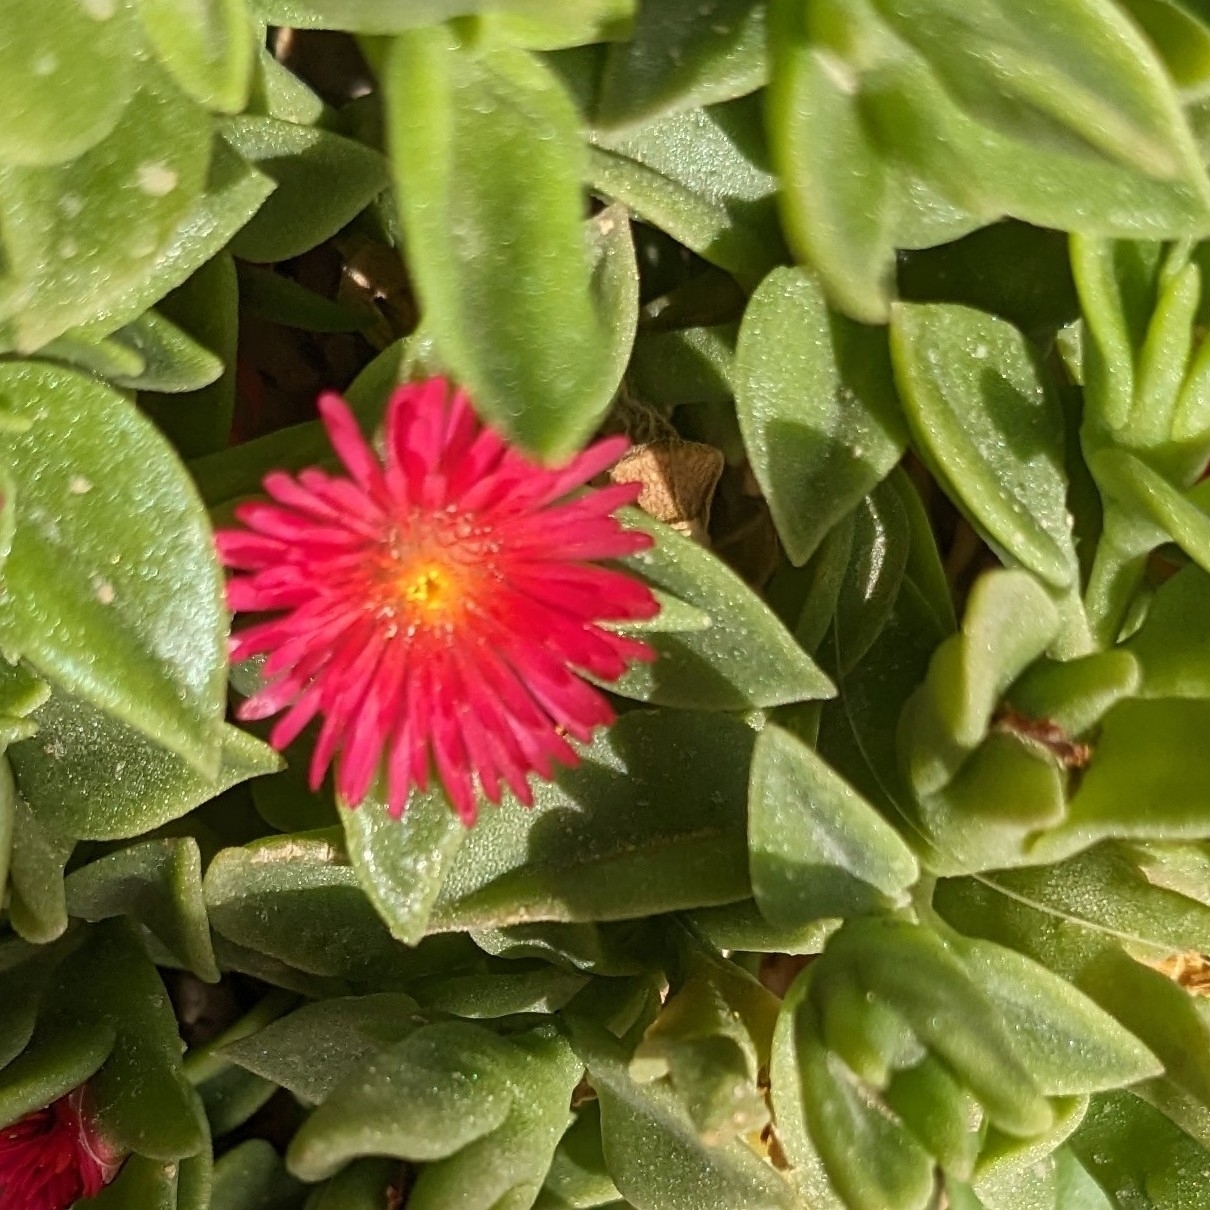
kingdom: Plantae
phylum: Tracheophyta
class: Magnoliopsida
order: Caryophyllales
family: Aizoaceae
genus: Mesembryanthemum
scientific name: Mesembryanthemum cordifolium
